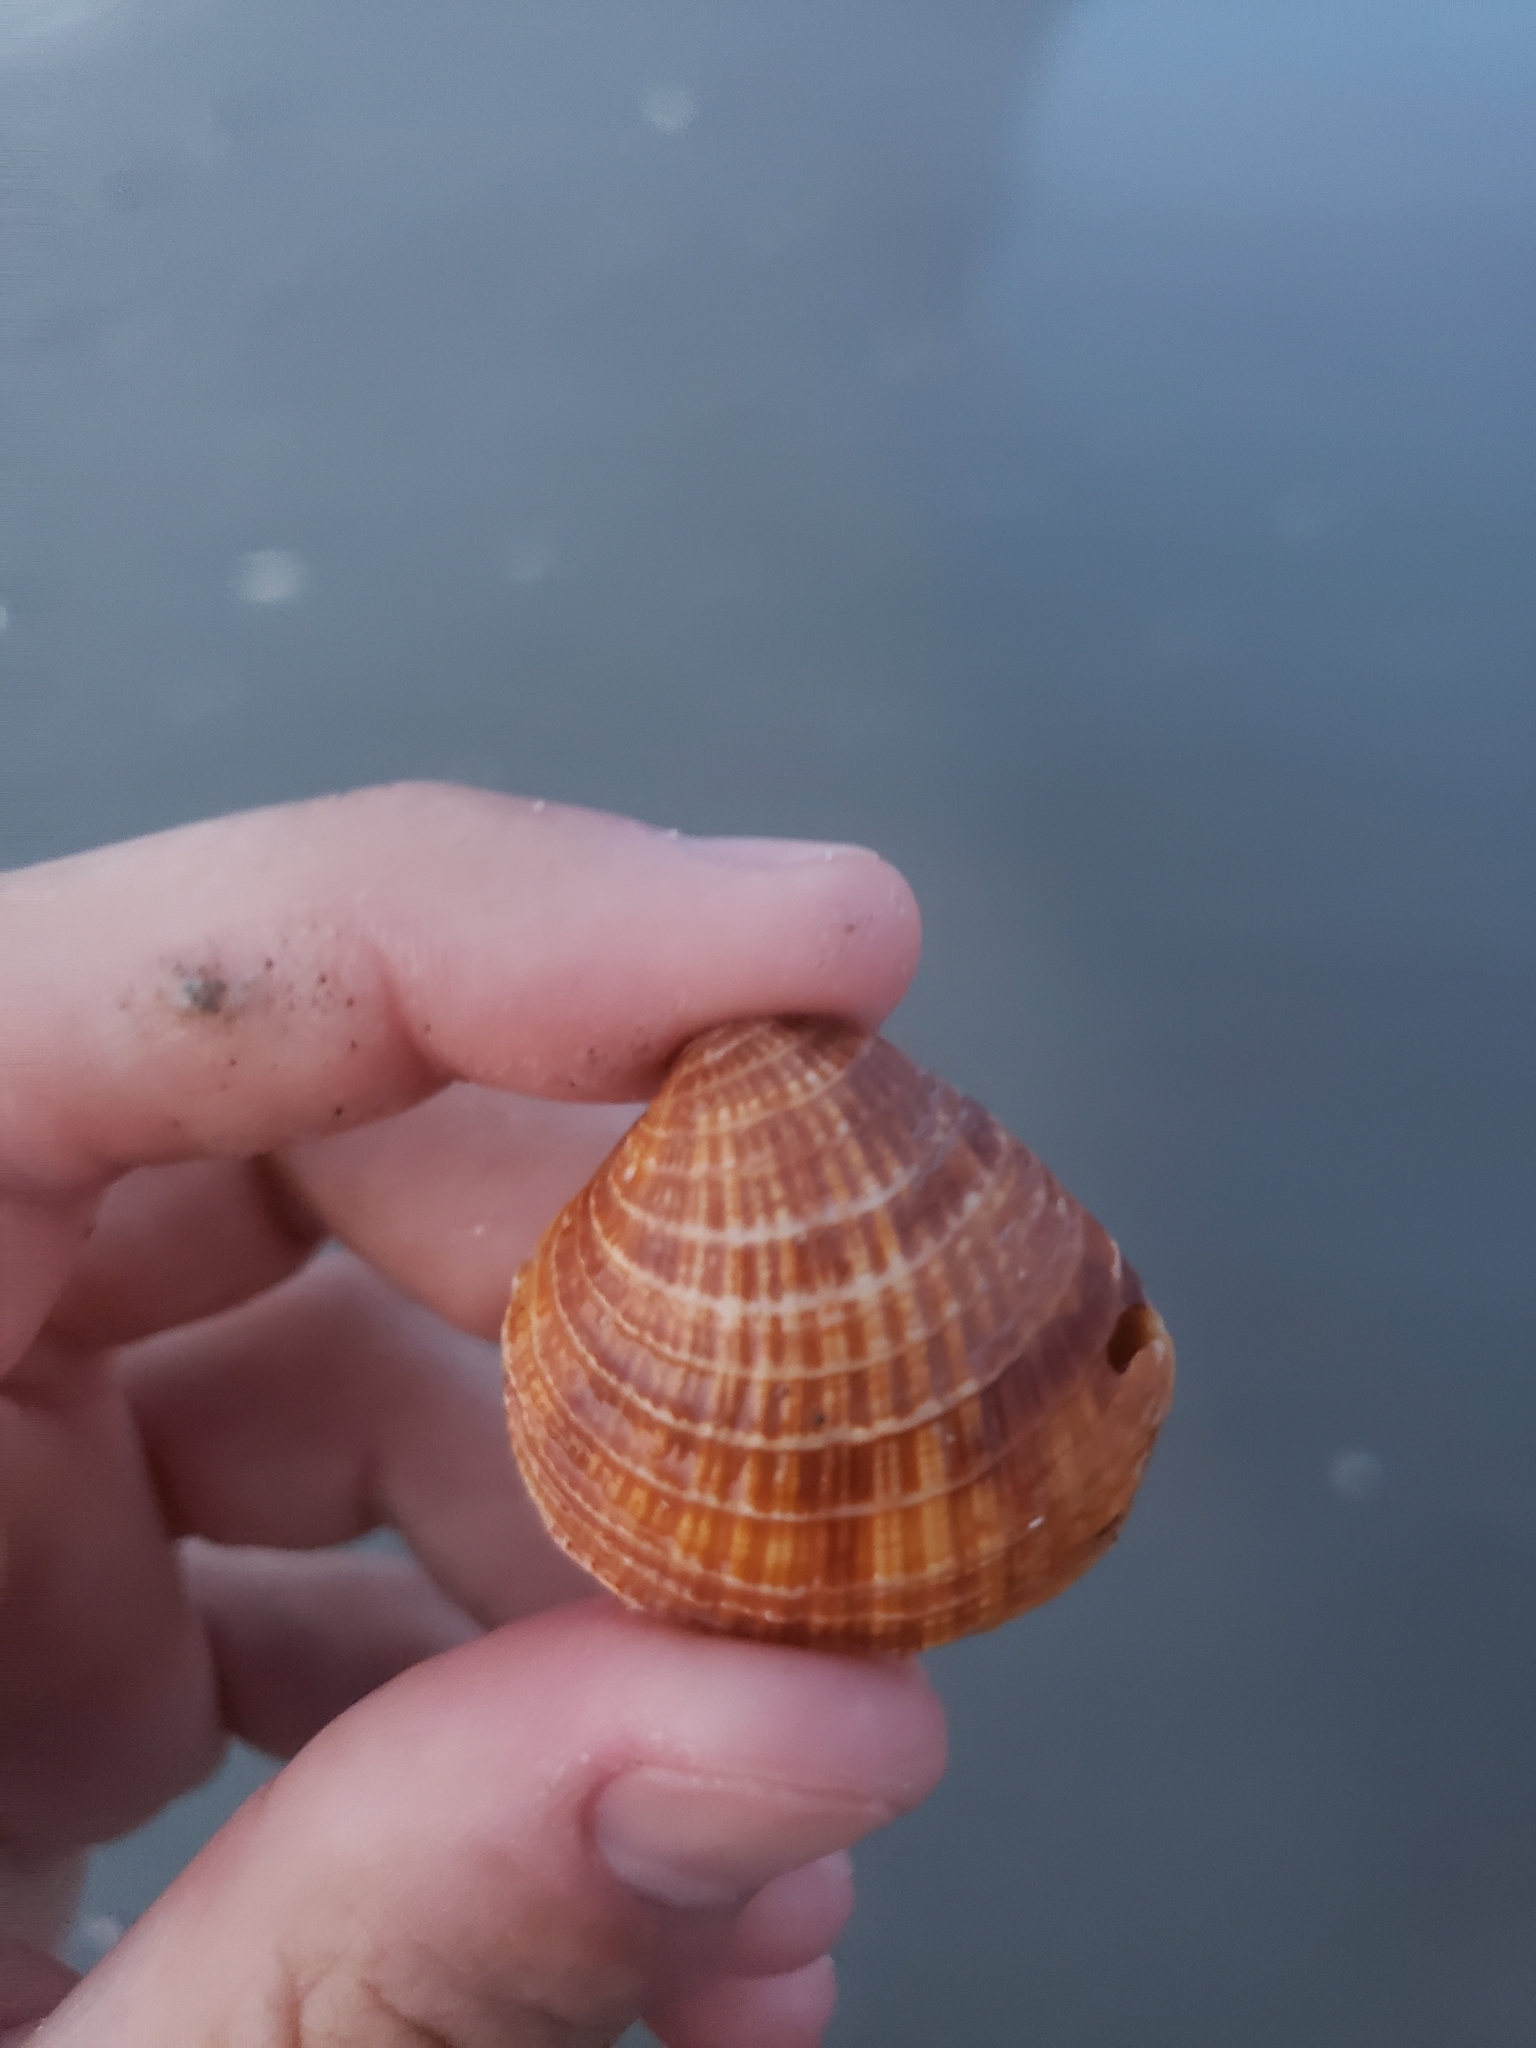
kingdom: Animalia
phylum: Mollusca
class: Bivalvia
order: Venerida
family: Veneridae
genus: Chione
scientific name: Chione elevata
